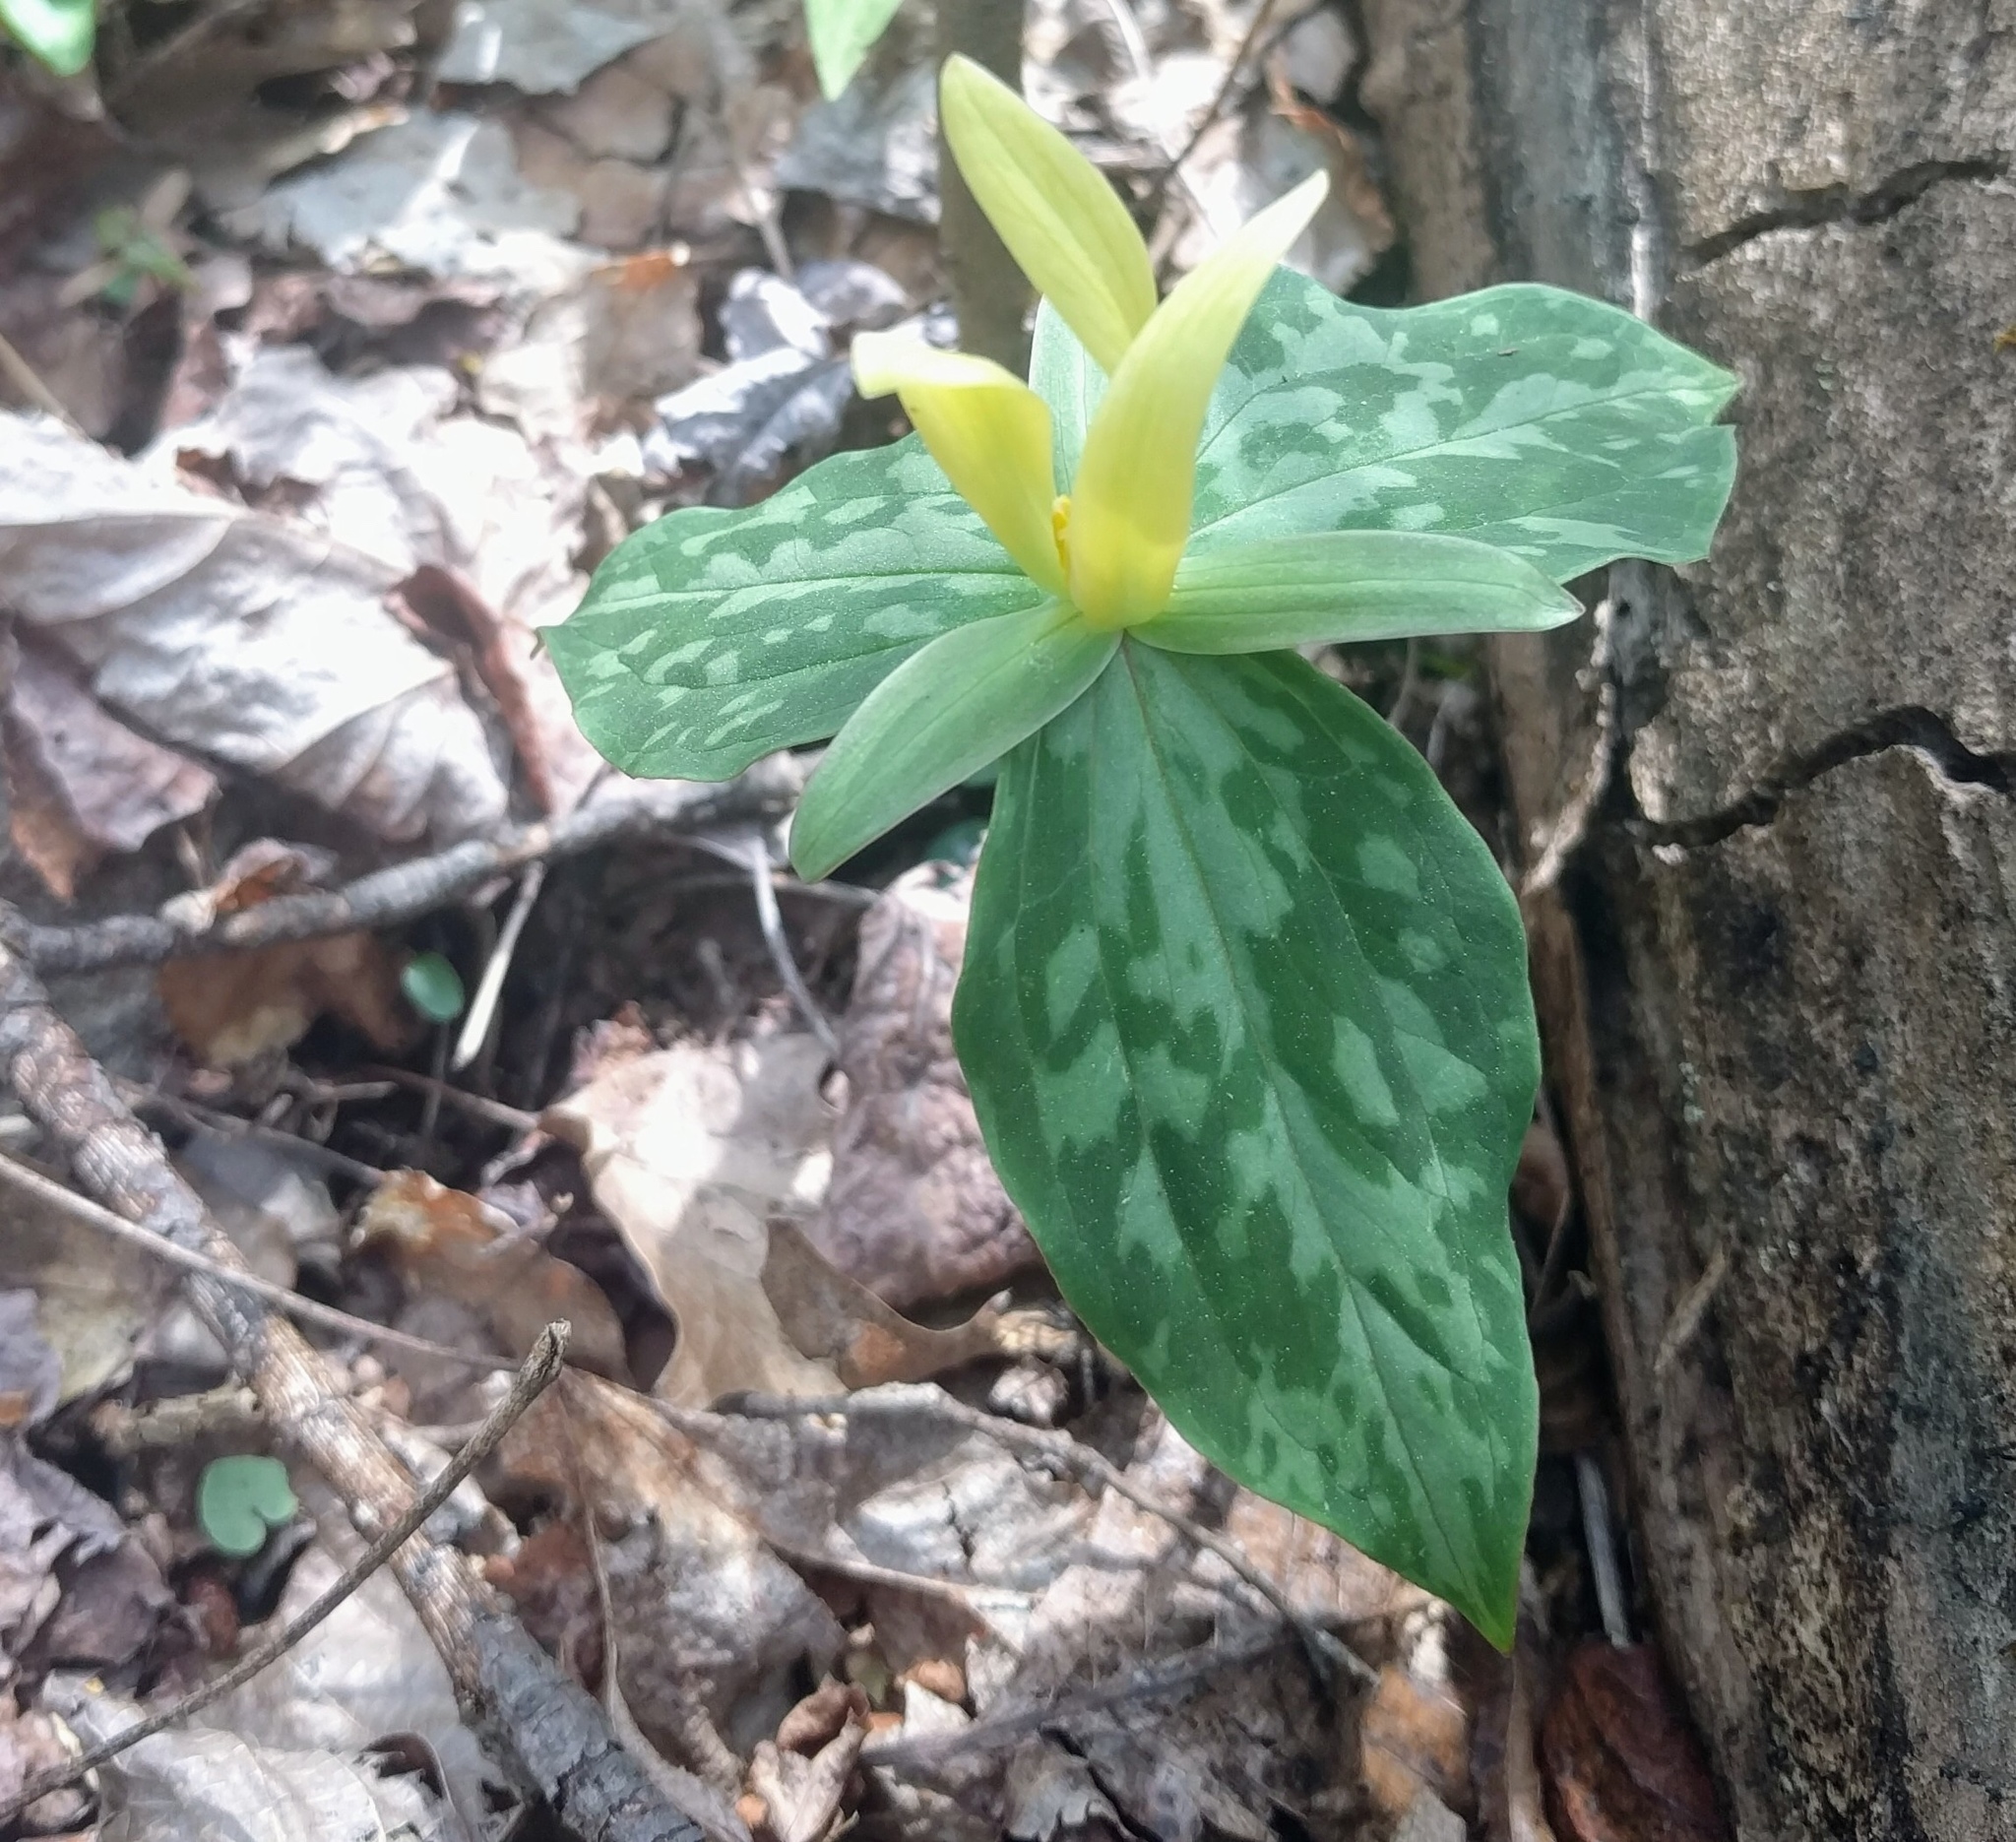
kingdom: Plantae
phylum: Tracheophyta
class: Liliopsida
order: Liliales
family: Melanthiaceae
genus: Trillium
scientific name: Trillium luteum
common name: Wax trillium
